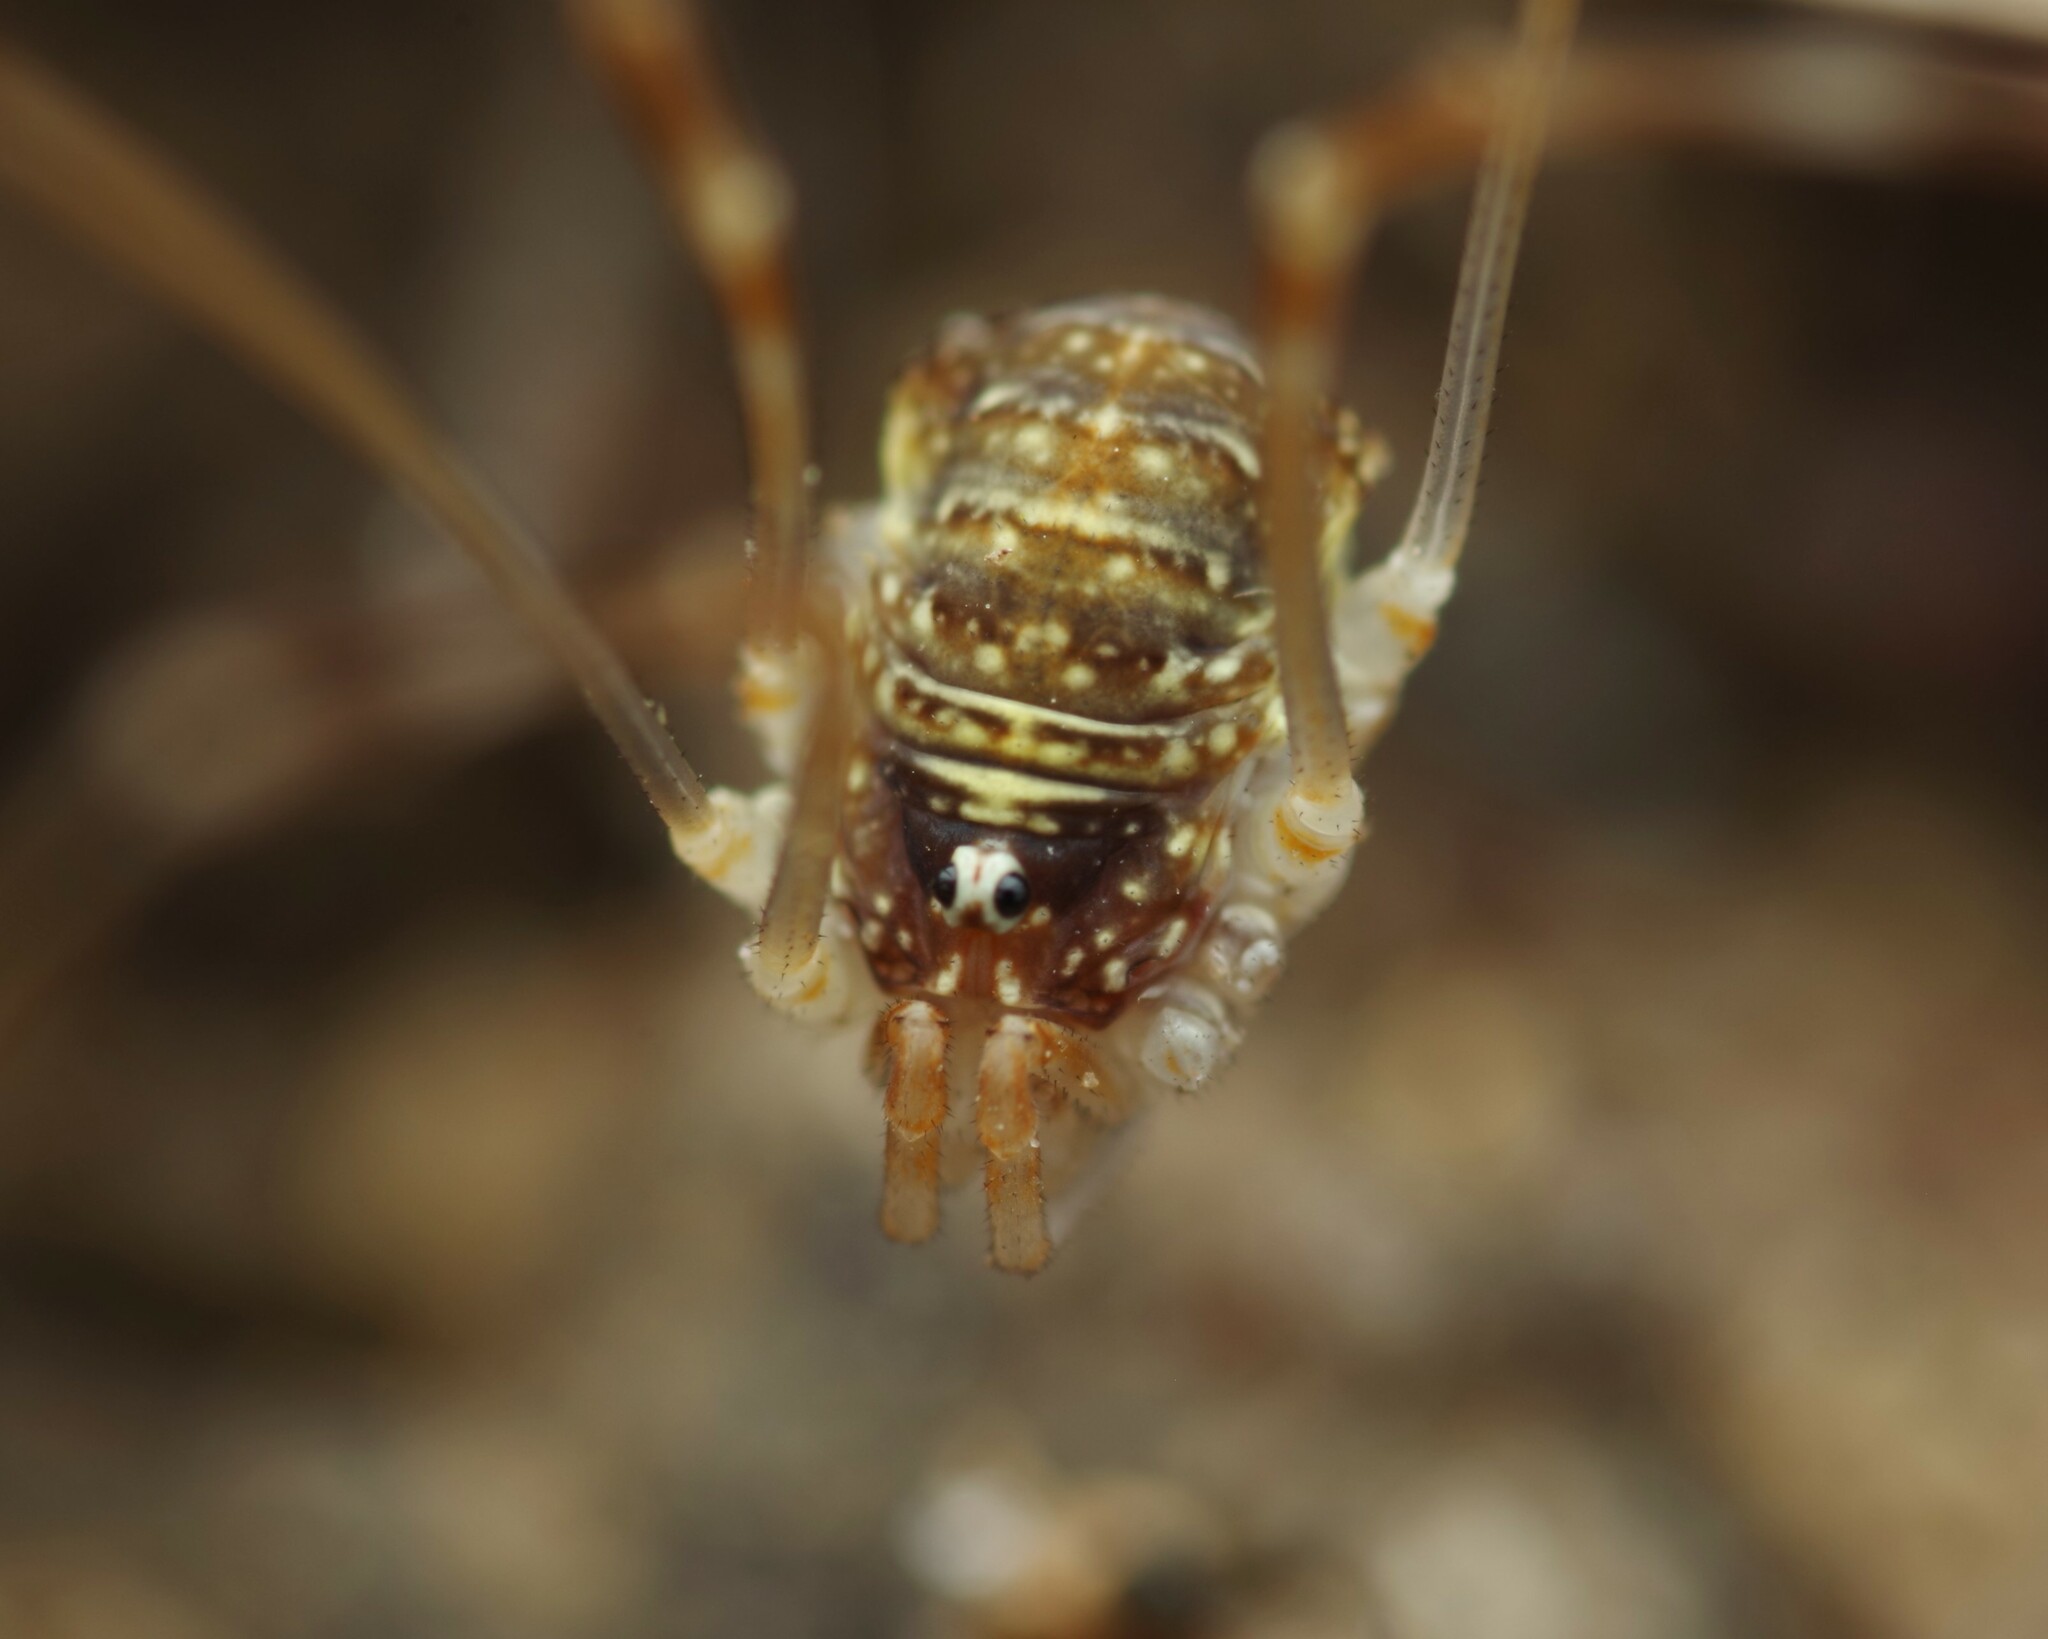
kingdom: Animalia
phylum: Arthropoda
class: Arachnida
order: Opiliones
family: Phalangiidae
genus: Opilio
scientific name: Opilio canestrinii
